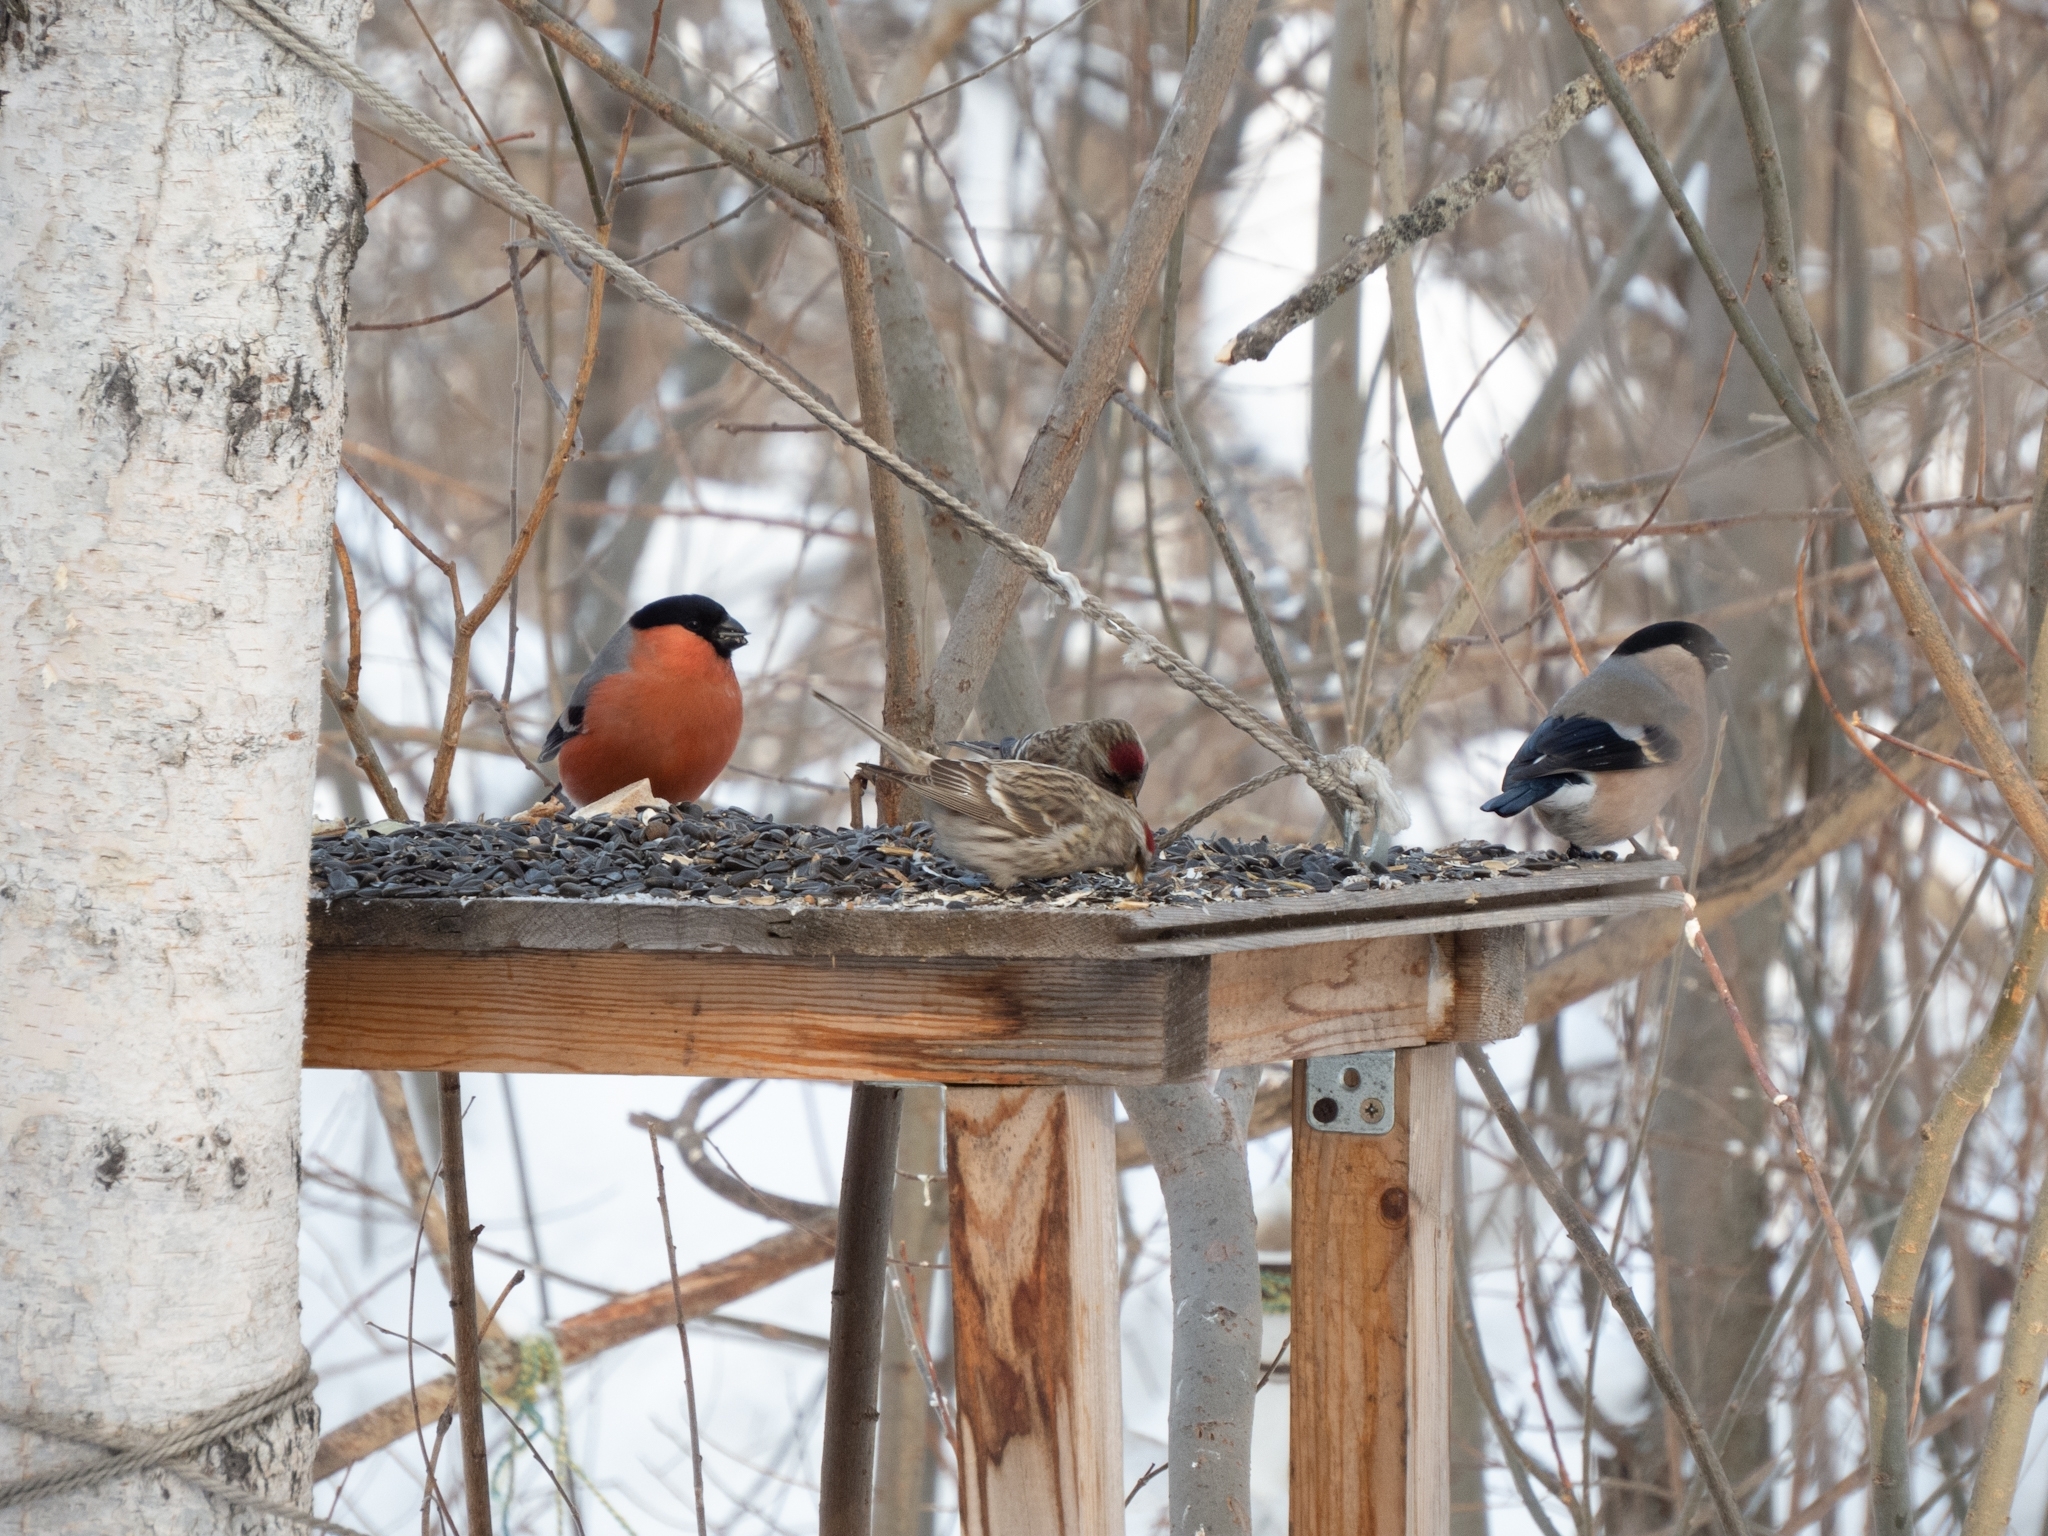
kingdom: Animalia
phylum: Chordata
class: Aves
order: Passeriformes
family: Fringillidae
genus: Pyrrhula
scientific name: Pyrrhula pyrrhula
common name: Eurasian bullfinch
